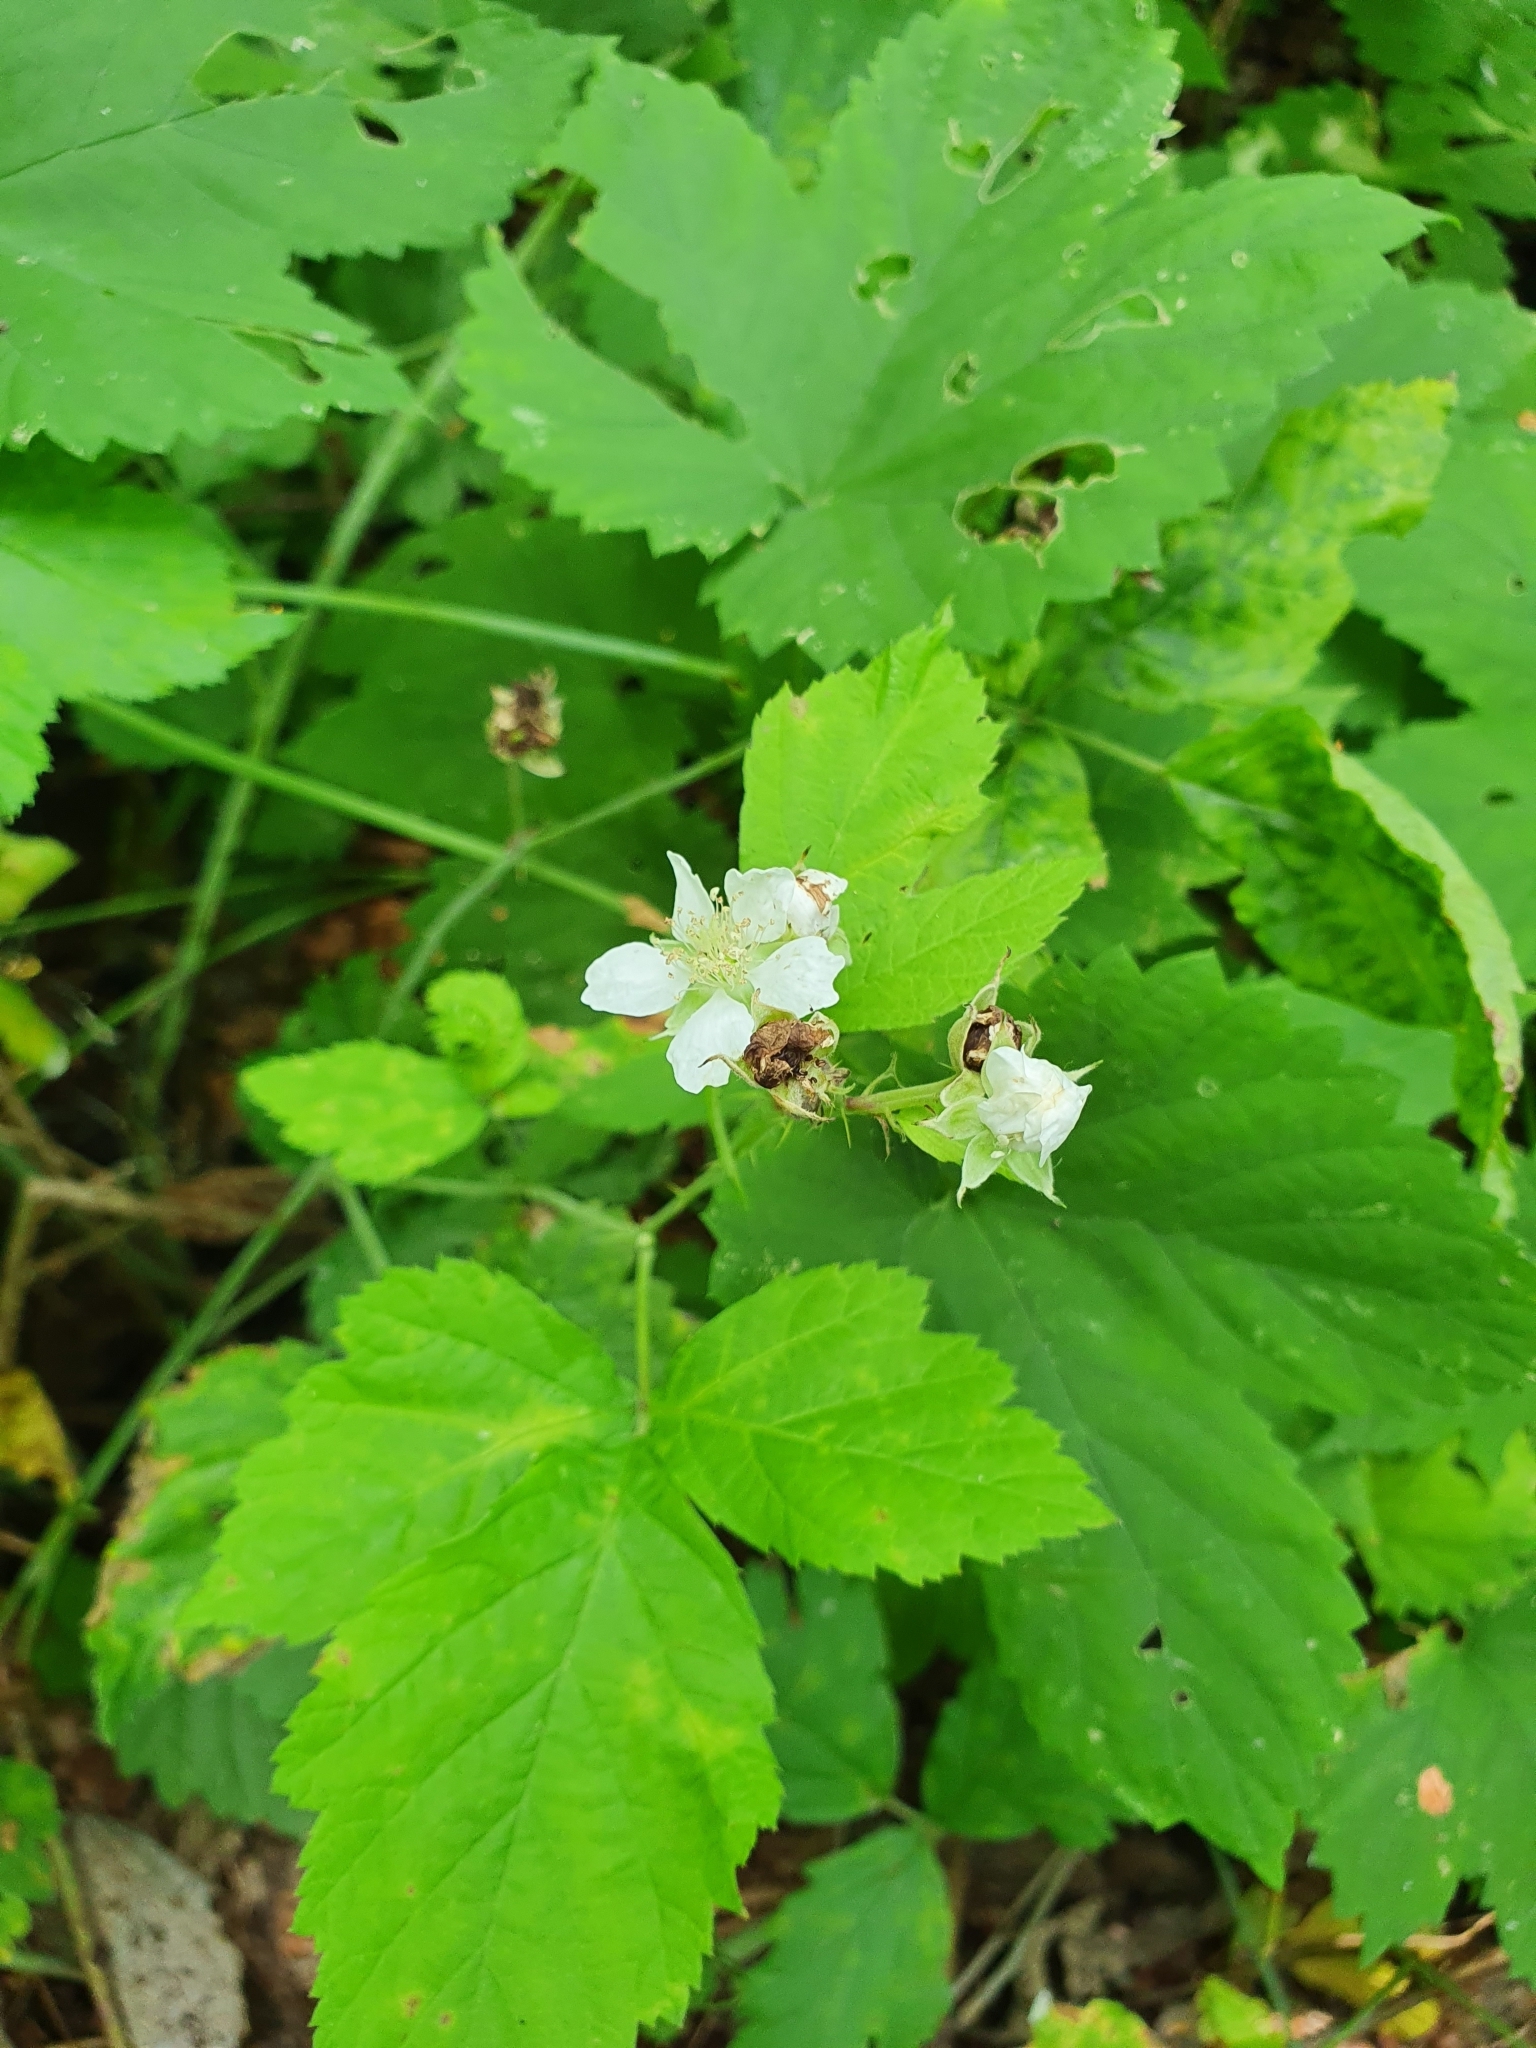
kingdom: Plantae
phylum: Tracheophyta
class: Magnoliopsida
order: Rosales
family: Rosaceae
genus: Rubus
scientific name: Rubus caesius
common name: Dewberry
